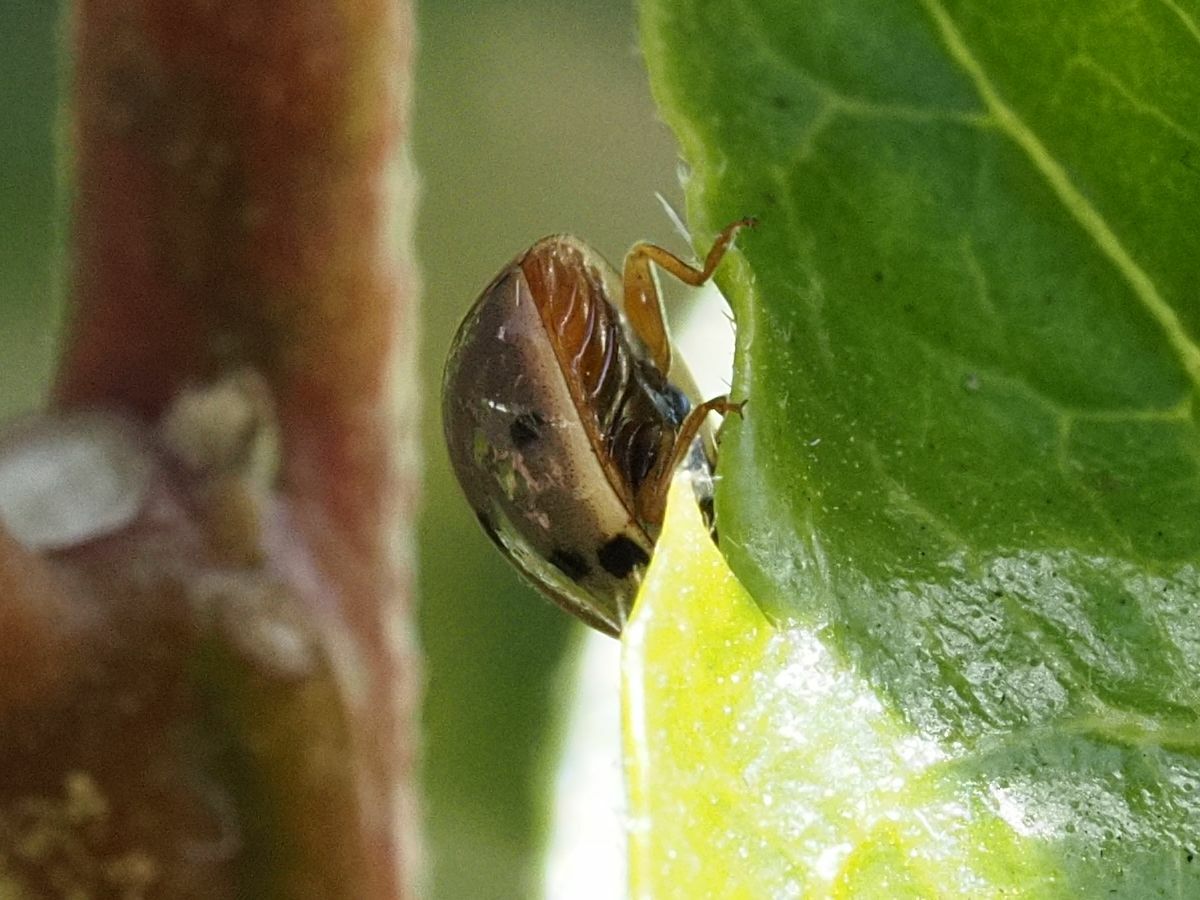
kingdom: Animalia
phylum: Arthropoda
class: Insecta
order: Coleoptera
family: Coccinellidae
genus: Olla
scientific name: Olla v-nigrum
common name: Ashy gray lady beetle
